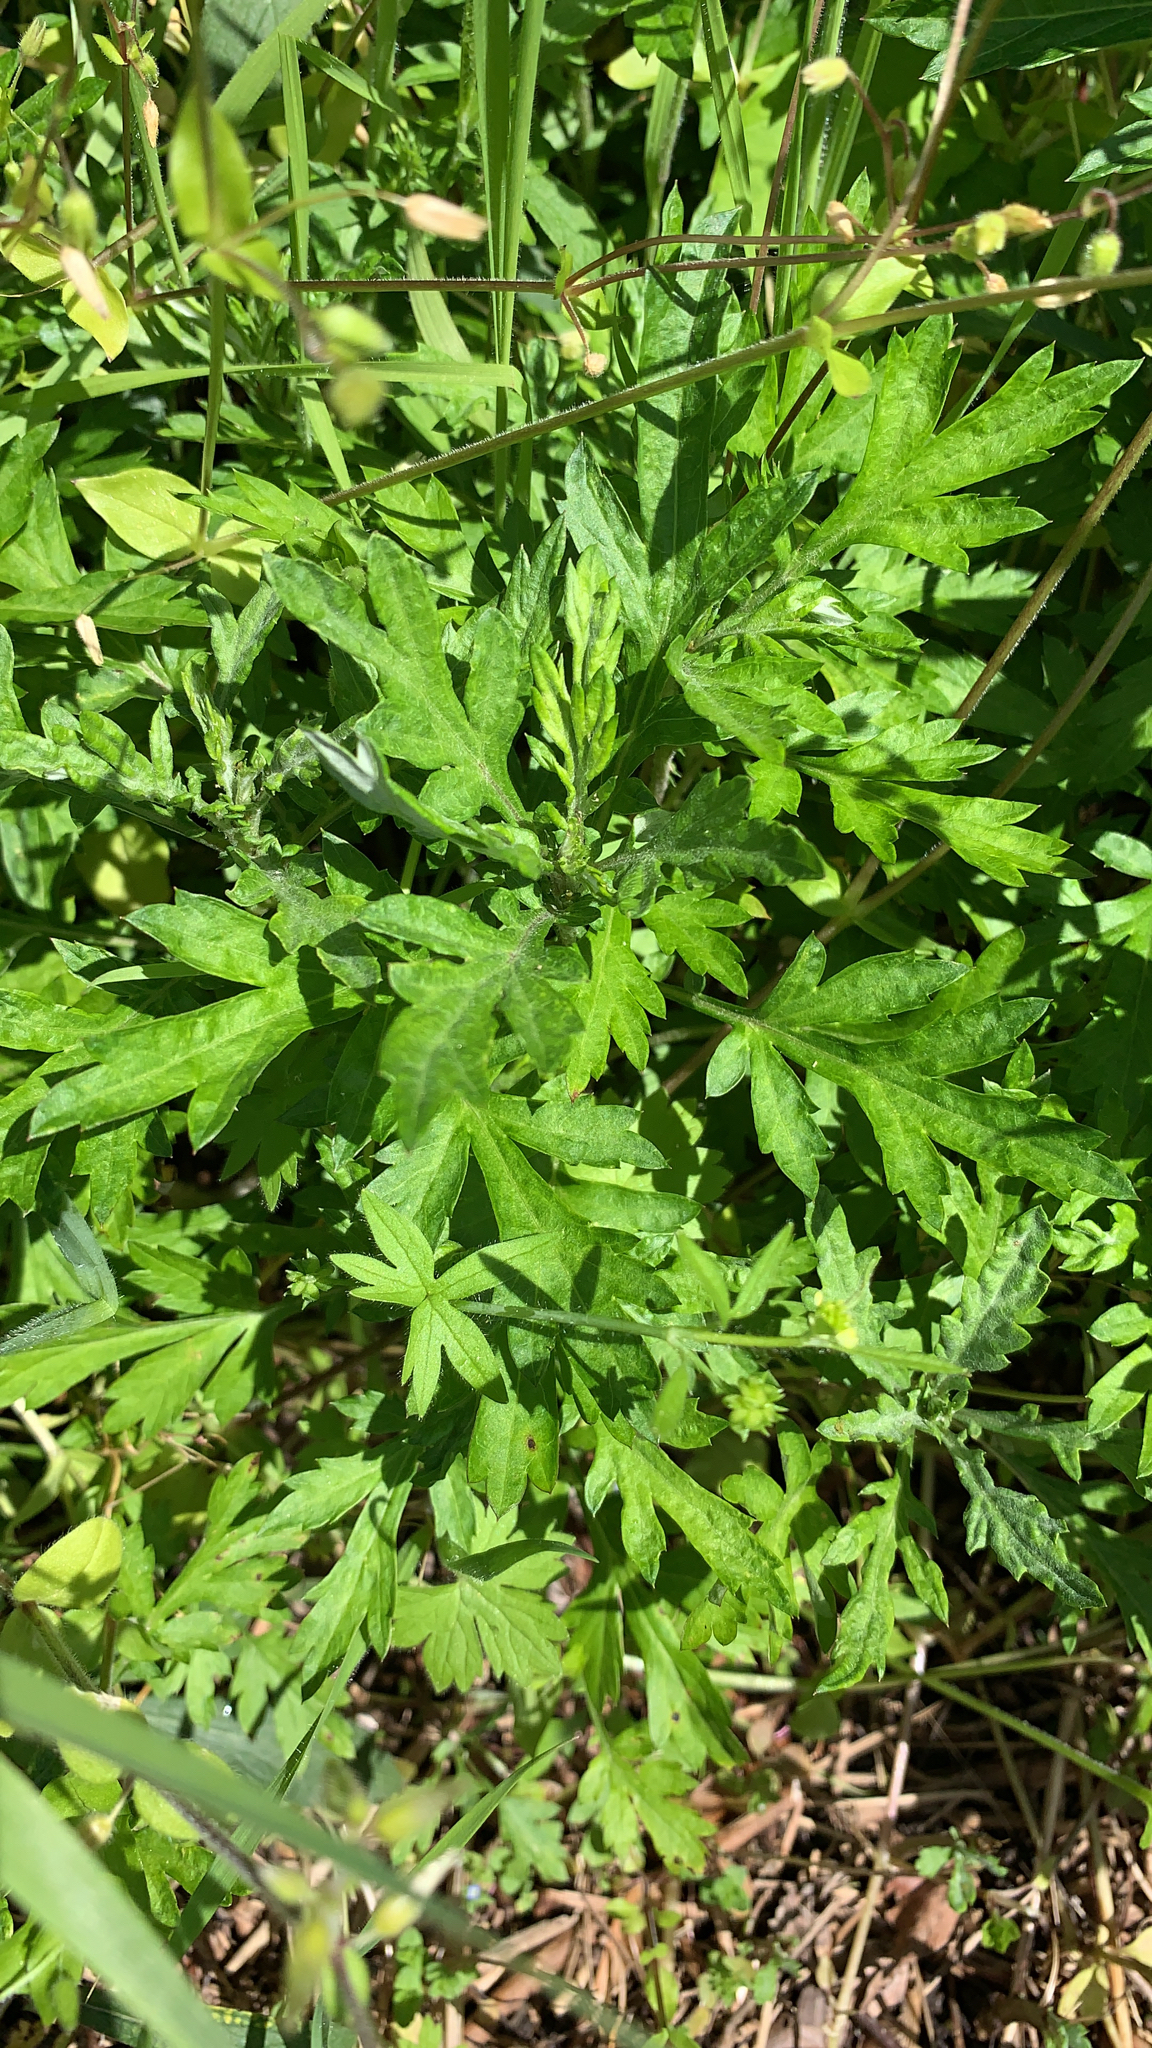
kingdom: Plantae
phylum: Tracheophyta
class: Magnoliopsida
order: Asterales
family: Asteraceae
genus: Artemisia
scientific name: Artemisia vulgaris
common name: Mugwort
